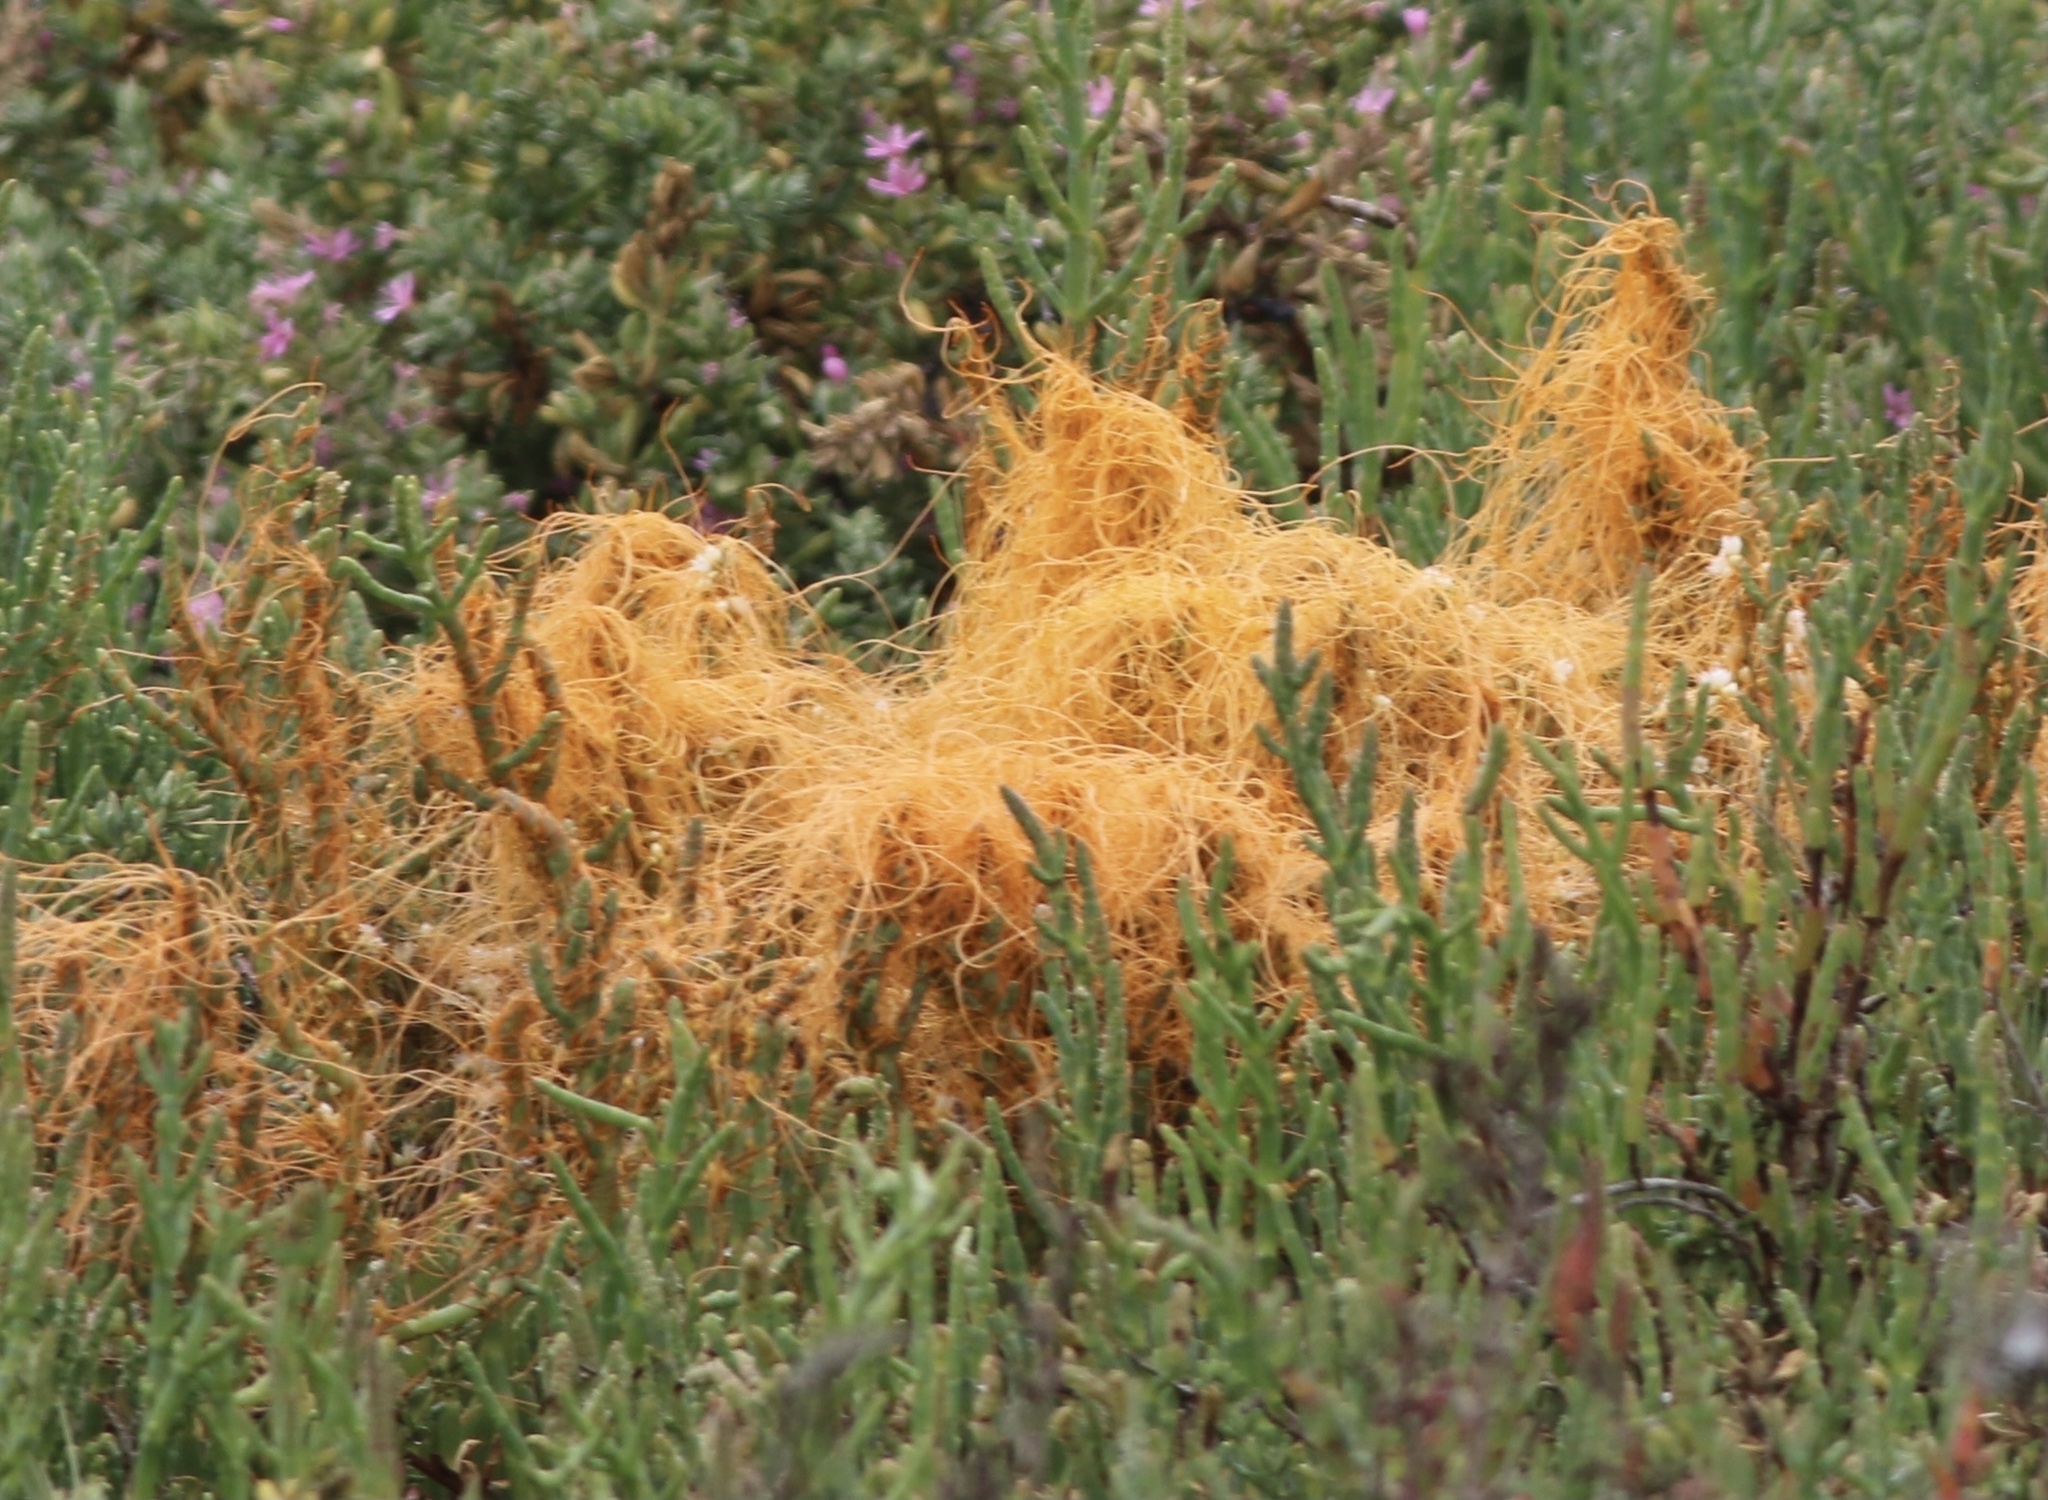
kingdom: Plantae
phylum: Tracheophyta
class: Magnoliopsida
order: Solanales
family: Convolvulaceae
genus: Cuscuta
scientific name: Cuscuta pacifica
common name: Large saltmarsh dodder
